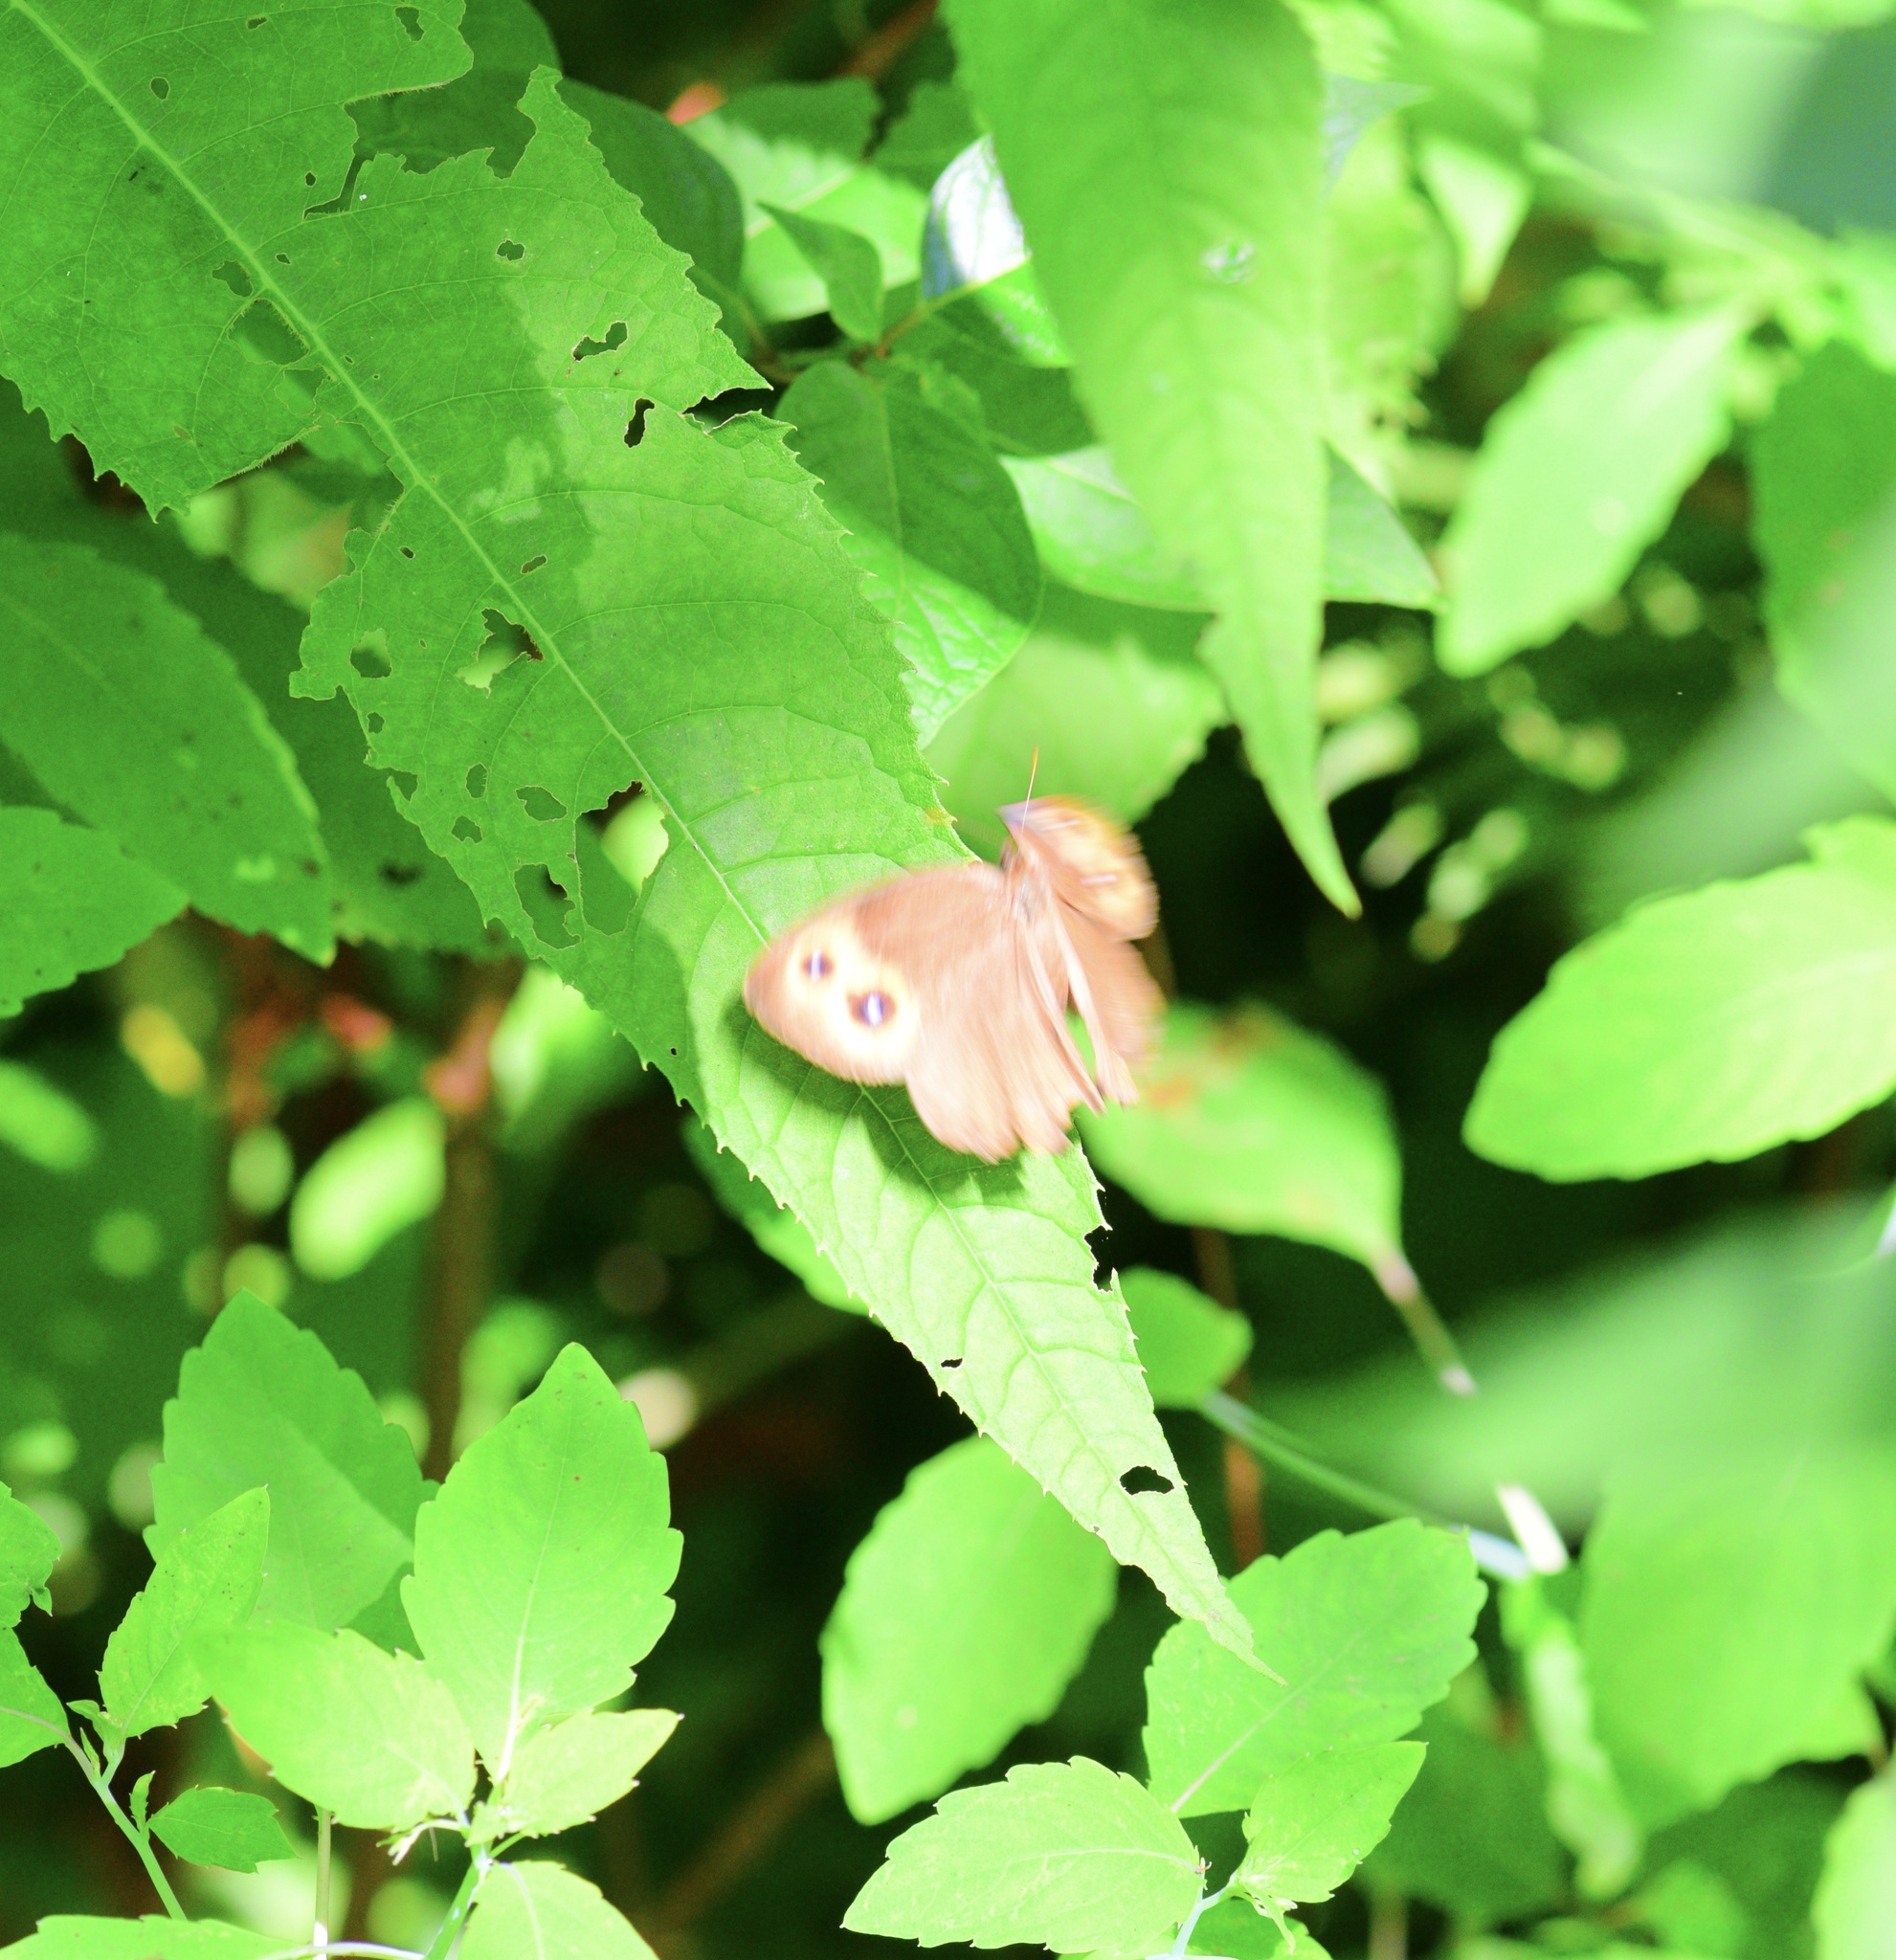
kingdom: Animalia
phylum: Arthropoda
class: Insecta
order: Lepidoptera
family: Nymphalidae
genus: Cercyonis
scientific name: Cercyonis pegala
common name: Common wood-nymph
